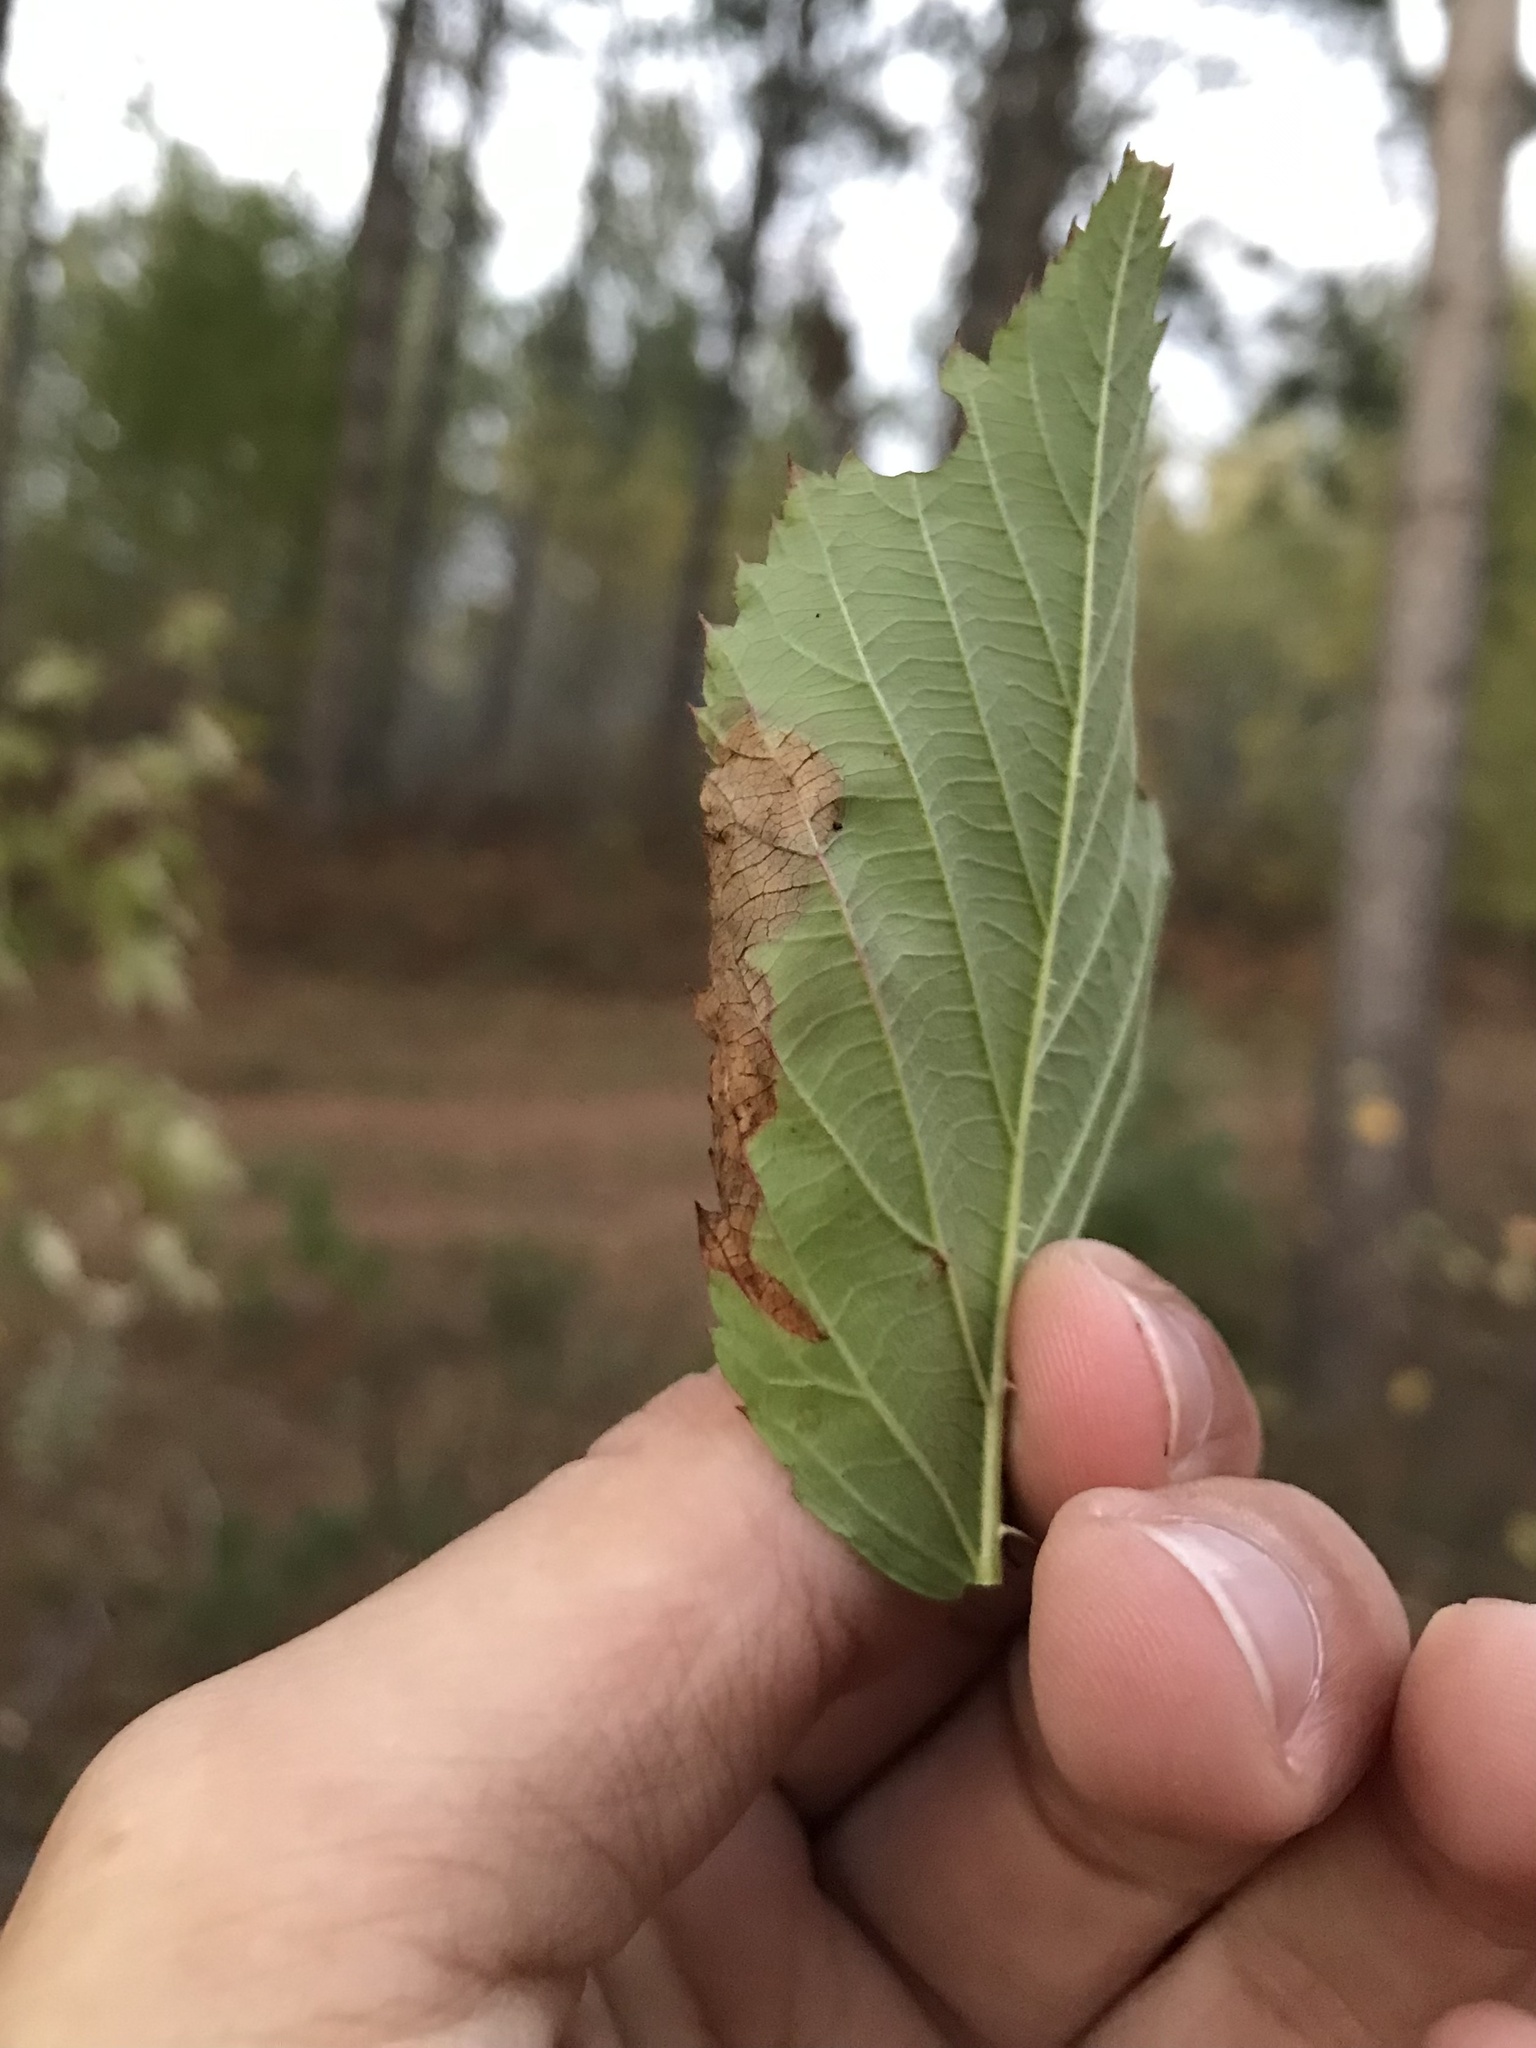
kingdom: Animalia
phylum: Arthropoda
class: Insecta
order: Hymenoptera
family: Tenthredinidae
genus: Metallus
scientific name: Metallus rohweri
